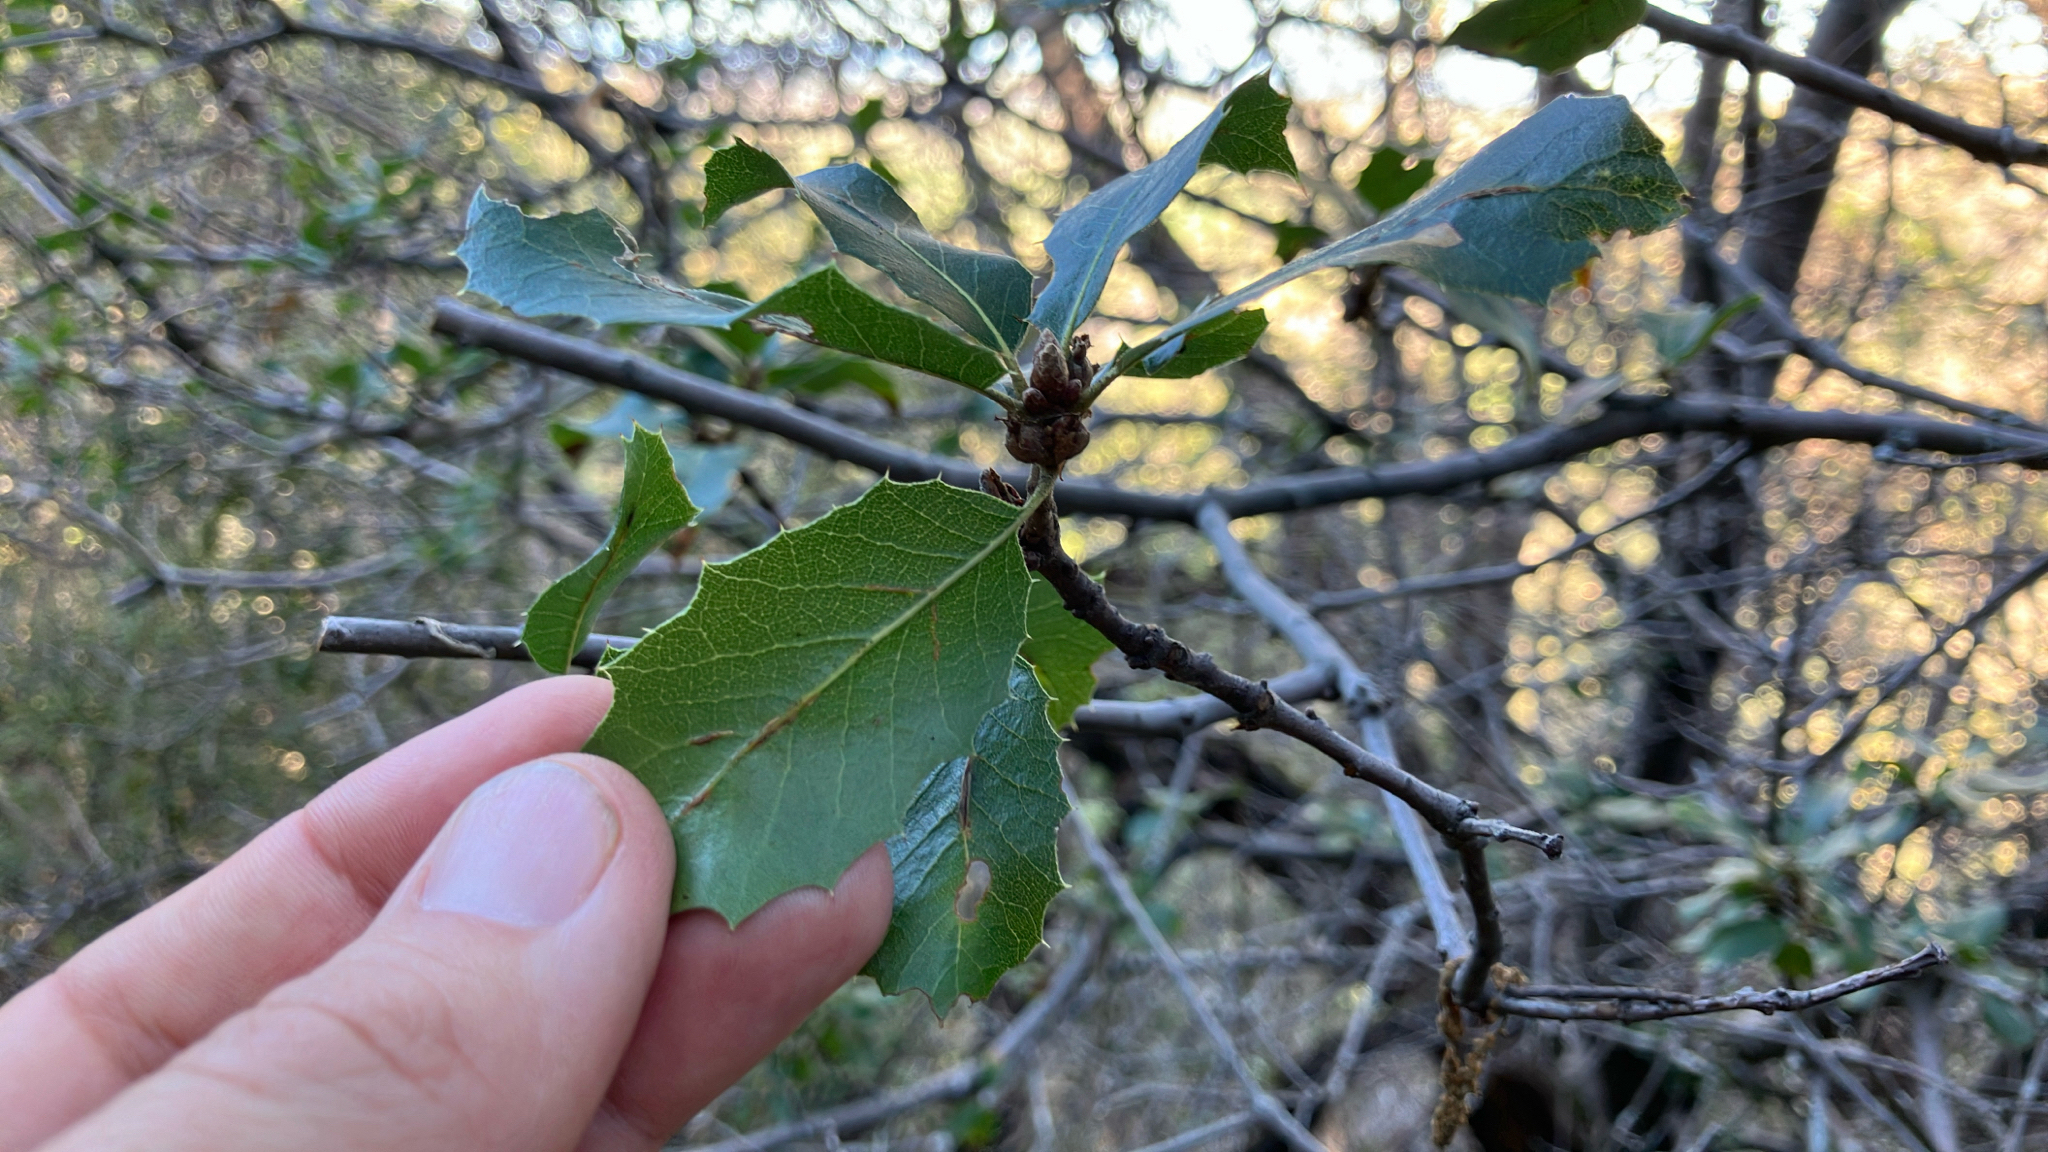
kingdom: Plantae
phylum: Tracheophyta
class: Magnoliopsida
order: Fagales
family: Fagaceae
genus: Quercus
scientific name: Quercus wislizeni
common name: Interior live oak
